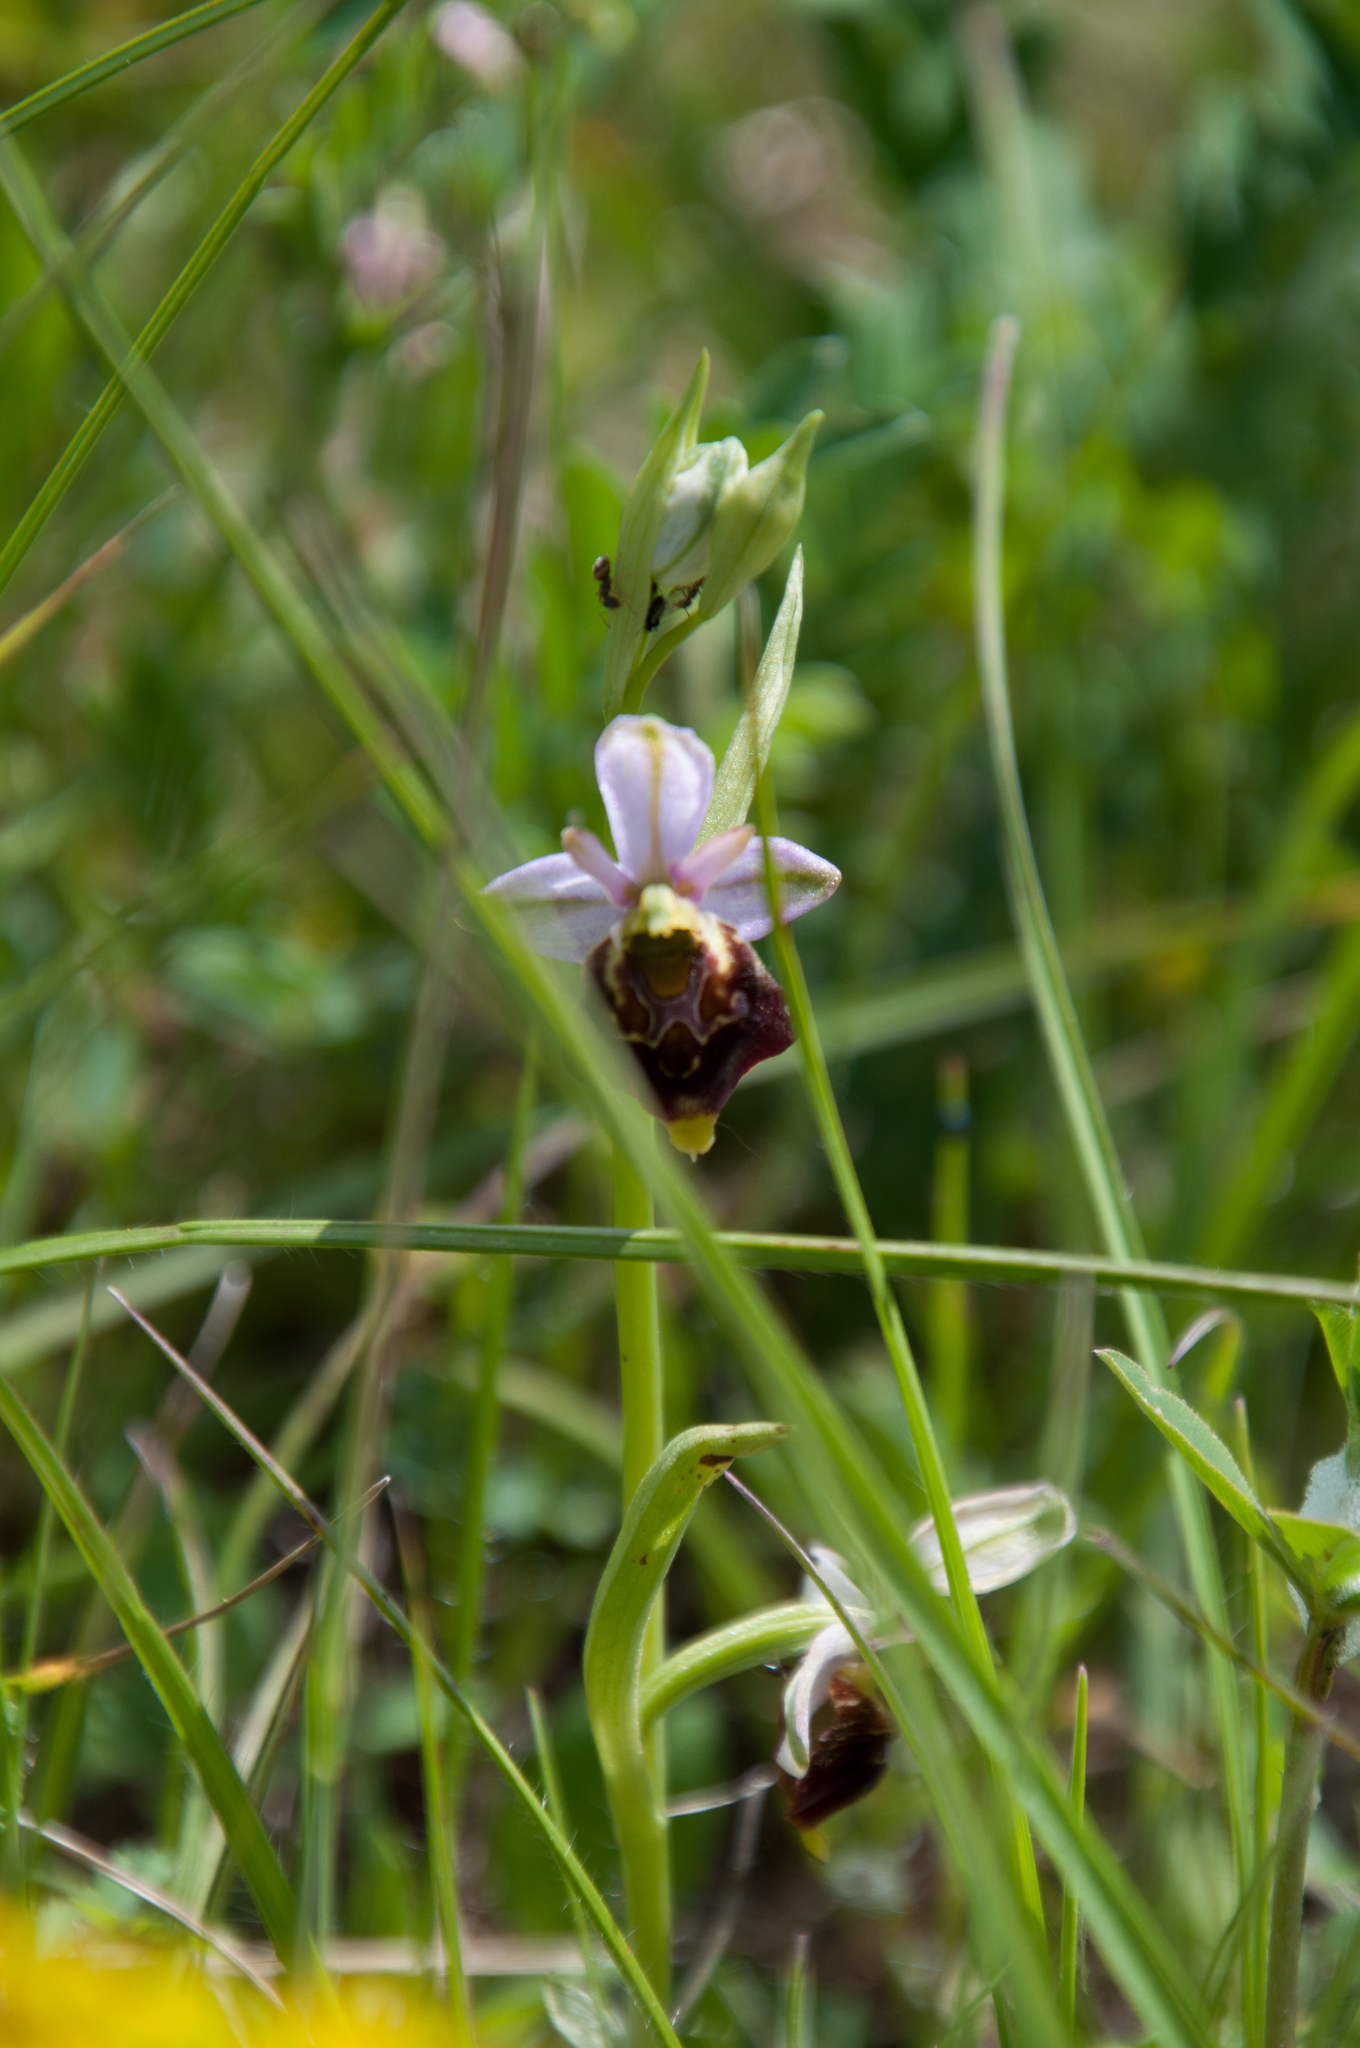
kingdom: Plantae
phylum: Tracheophyta
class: Liliopsida
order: Asparagales
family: Orchidaceae
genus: Ophrys
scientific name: Ophrys holosericea
